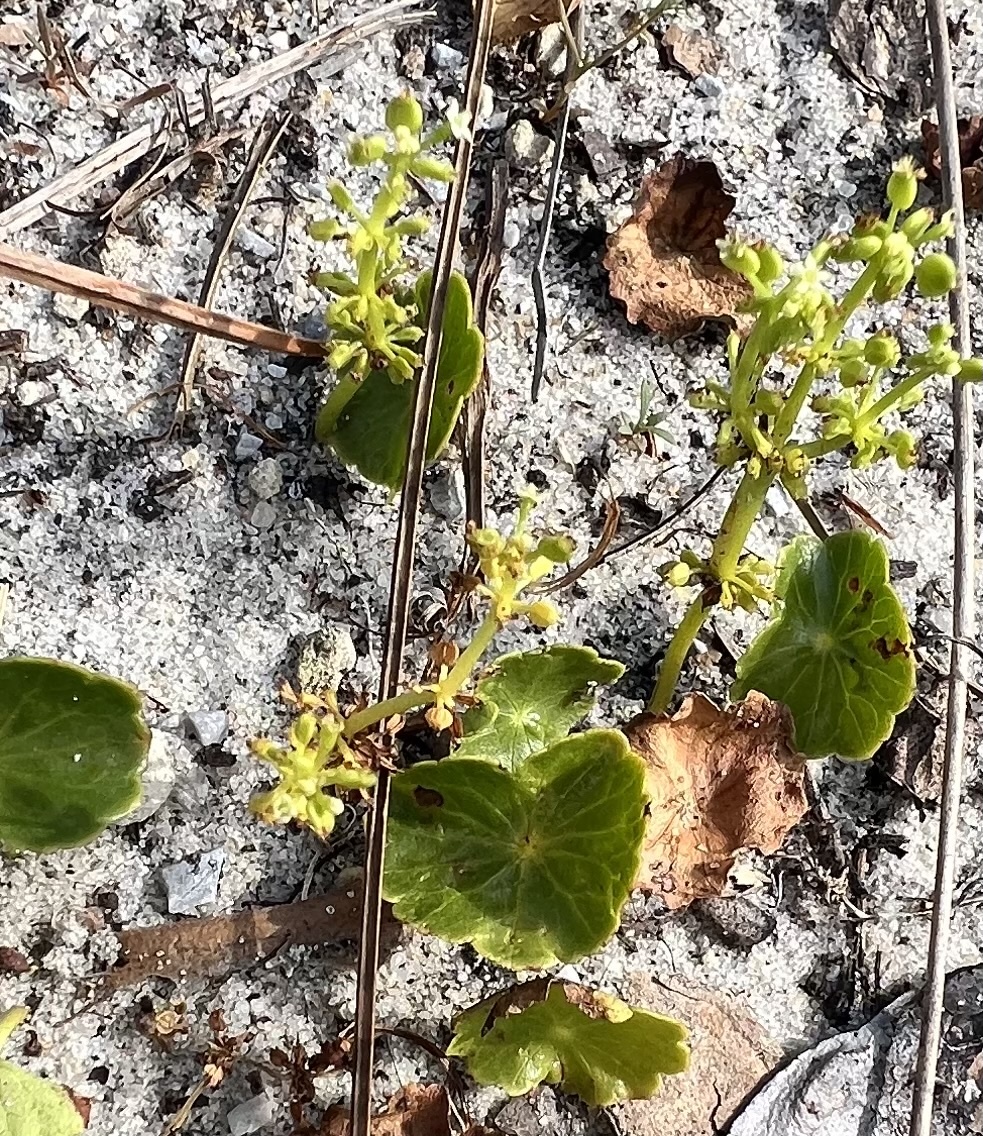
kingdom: Plantae
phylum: Tracheophyta
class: Magnoliopsida
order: Apiales
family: Araliaceae
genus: Hydrocotyle
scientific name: Hydrocotyle bonariensis
